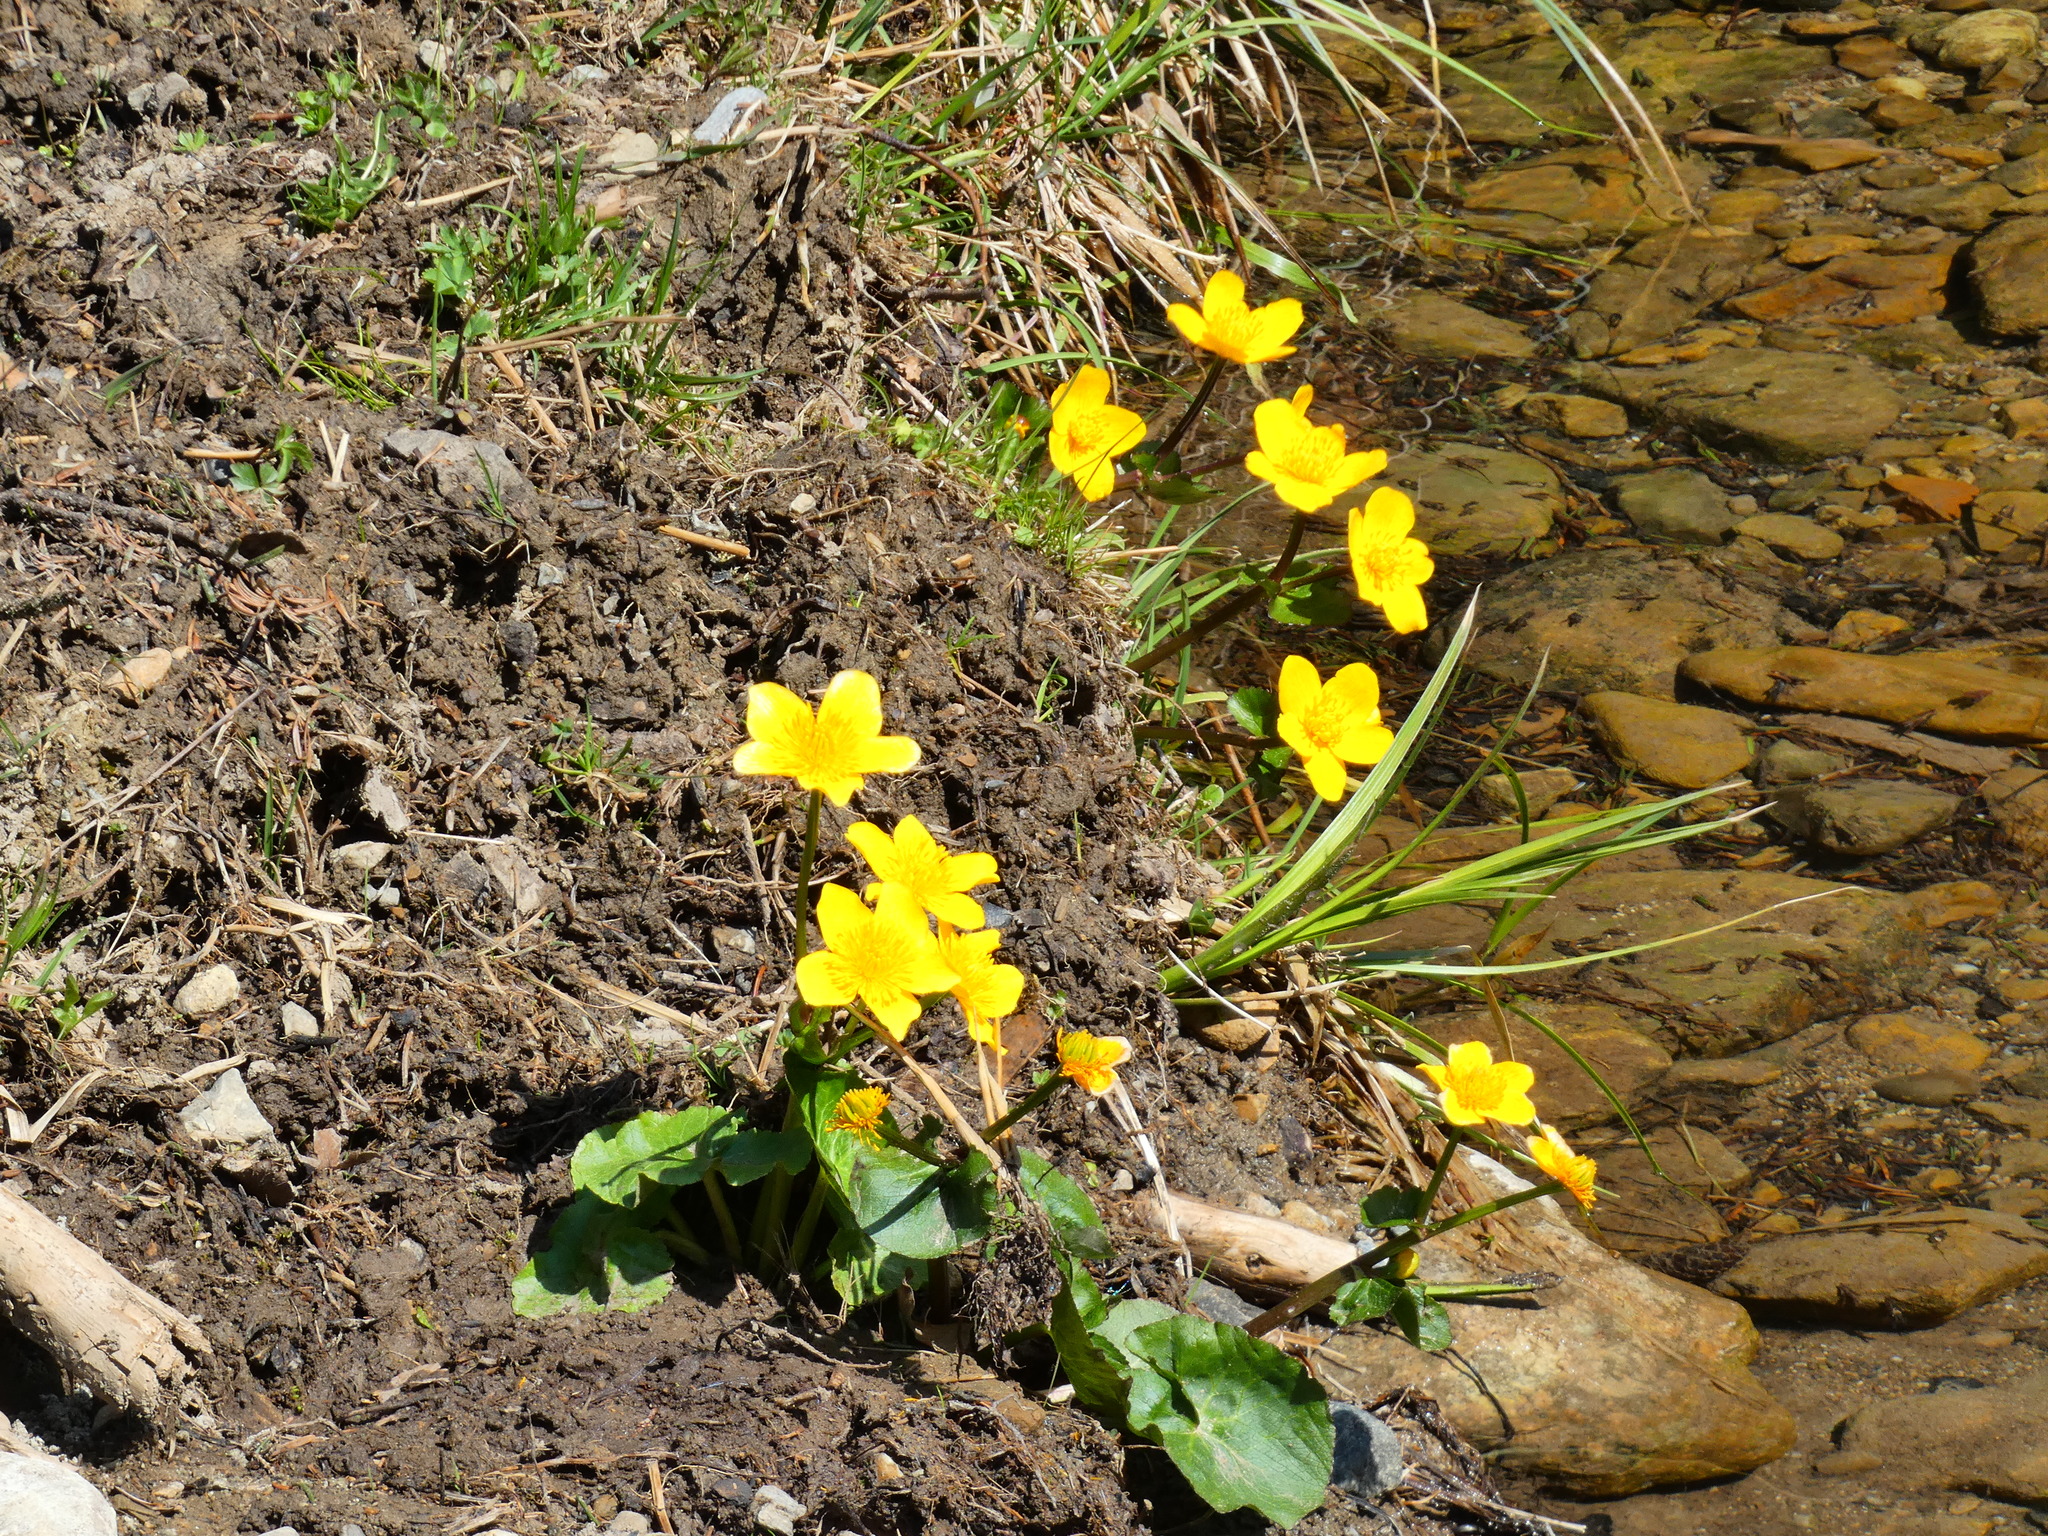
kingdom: Plantae
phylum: Tracheophyta
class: Magnoliopsida
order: Ranunculales
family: Ranunculaceae
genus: Caltha
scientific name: Caltha palustris
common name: Marsh marigold
